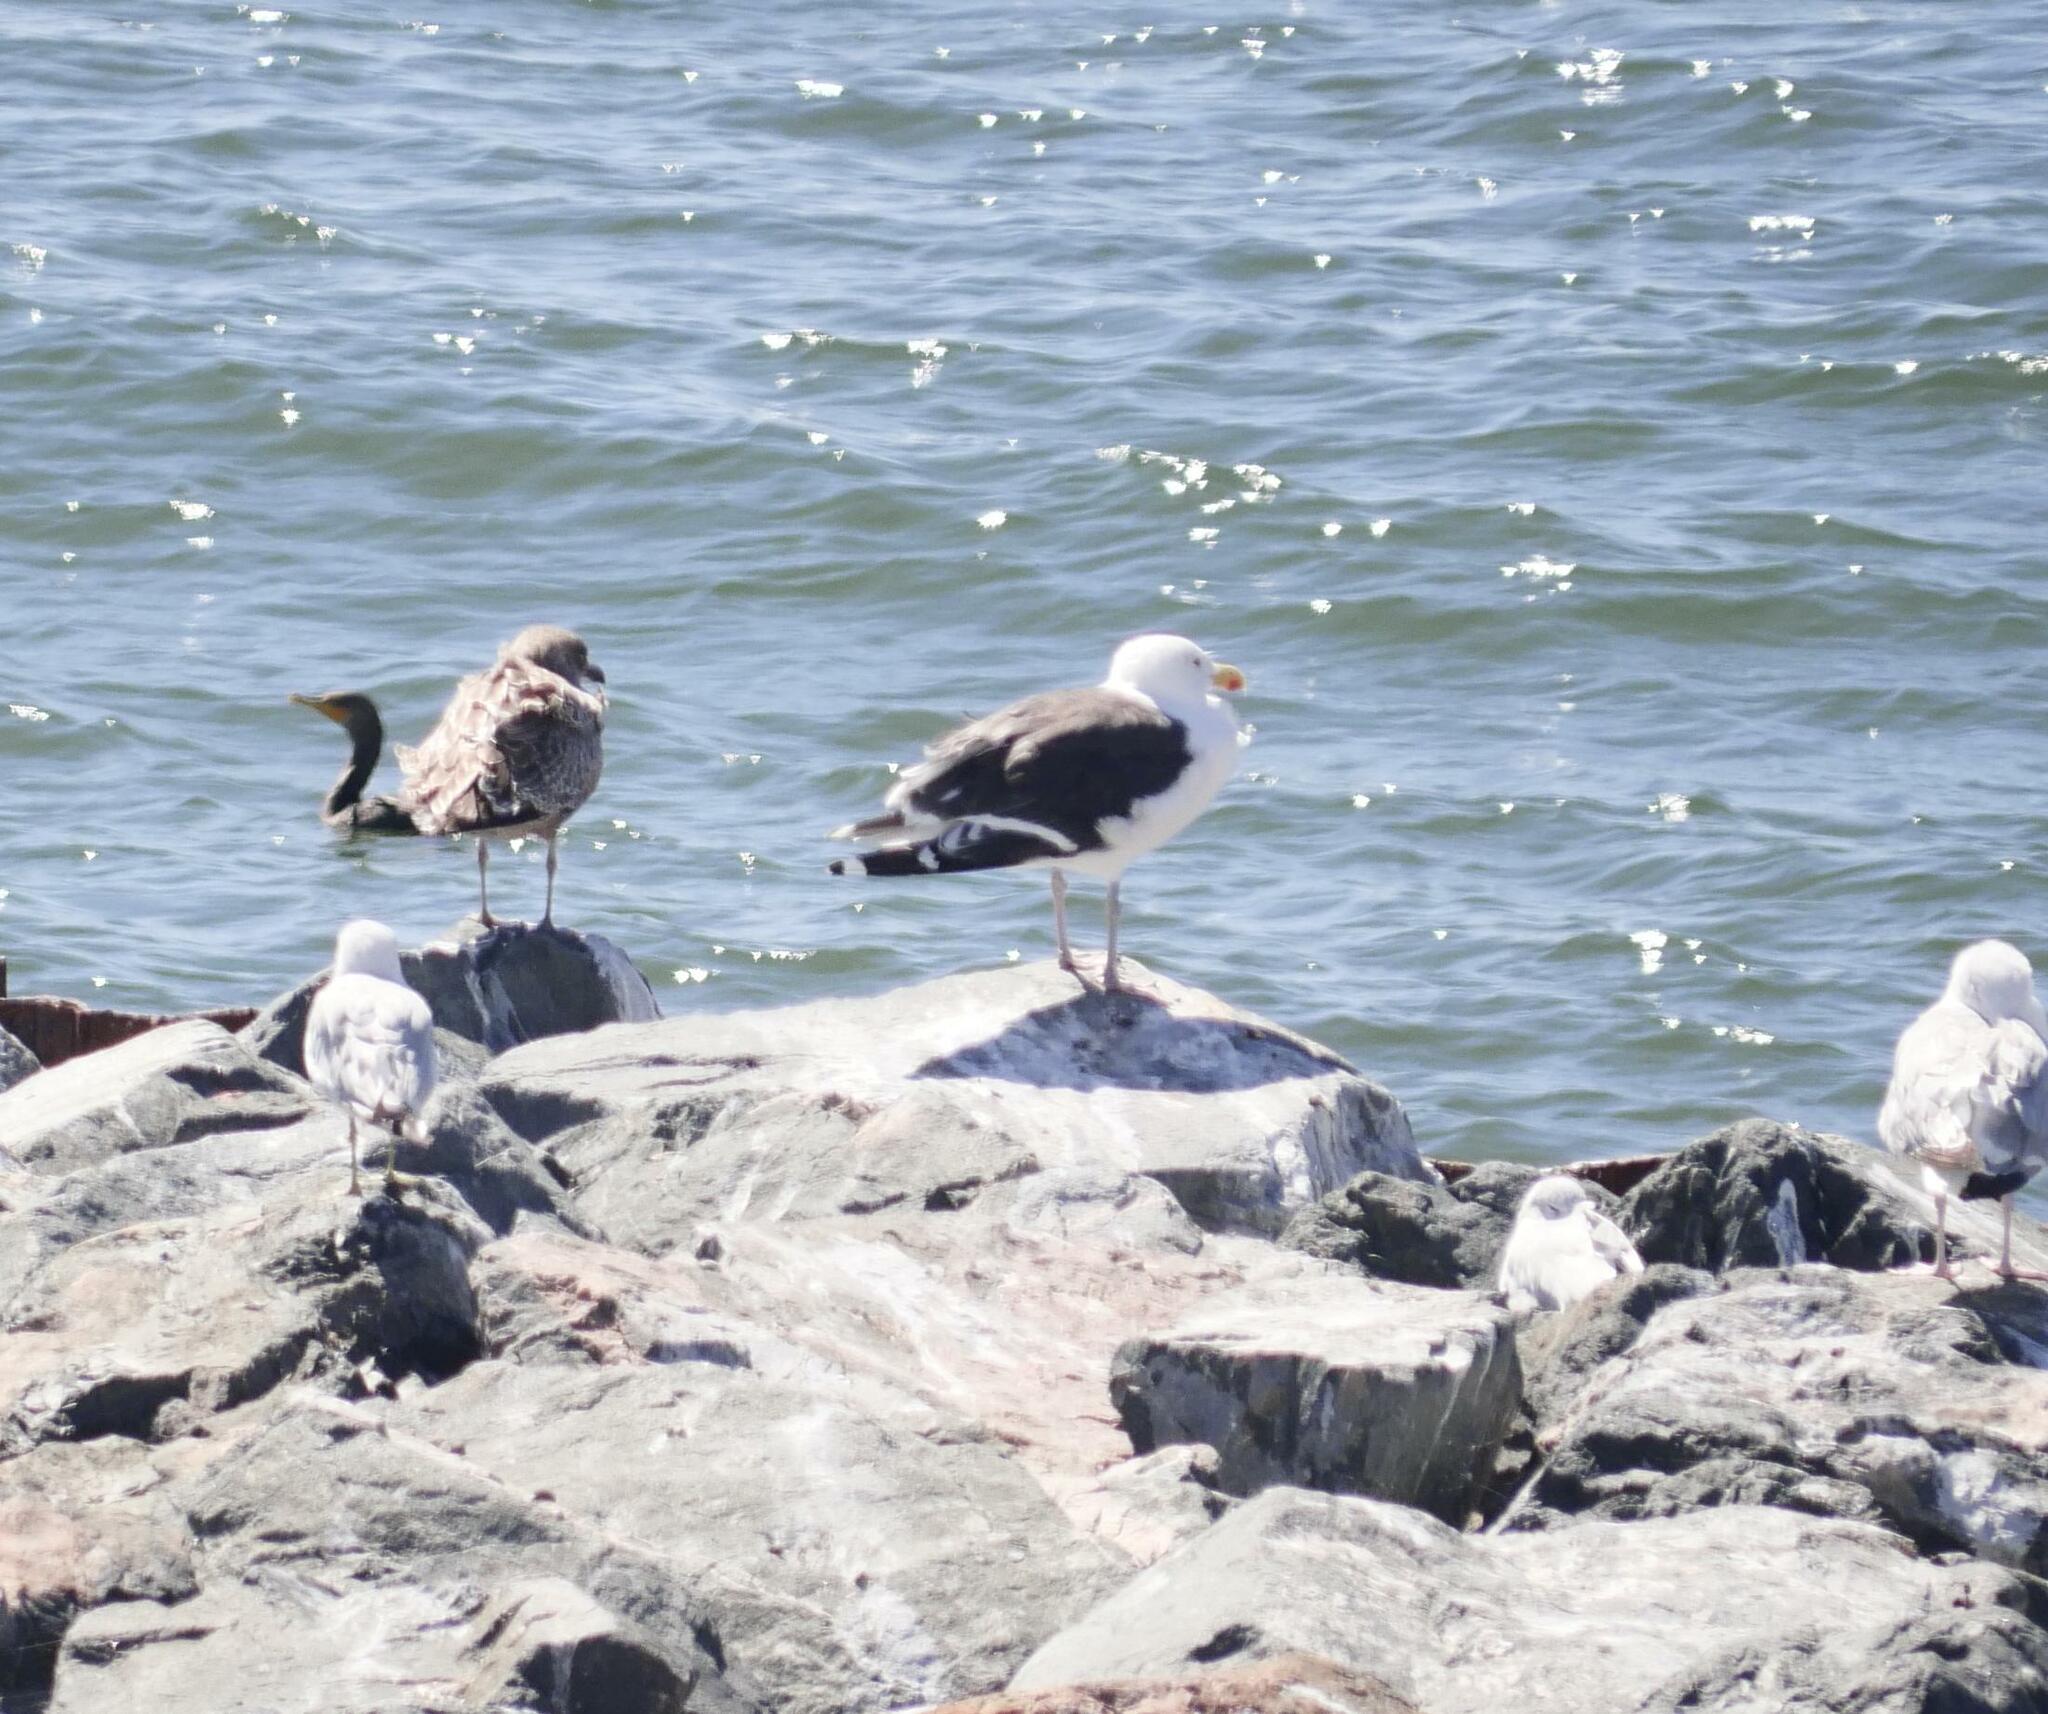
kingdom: Animalia
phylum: Chordata
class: Aves
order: Charadriiformes
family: Laridae
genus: Larus
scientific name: Larus marinus
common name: Great black-backed gull
